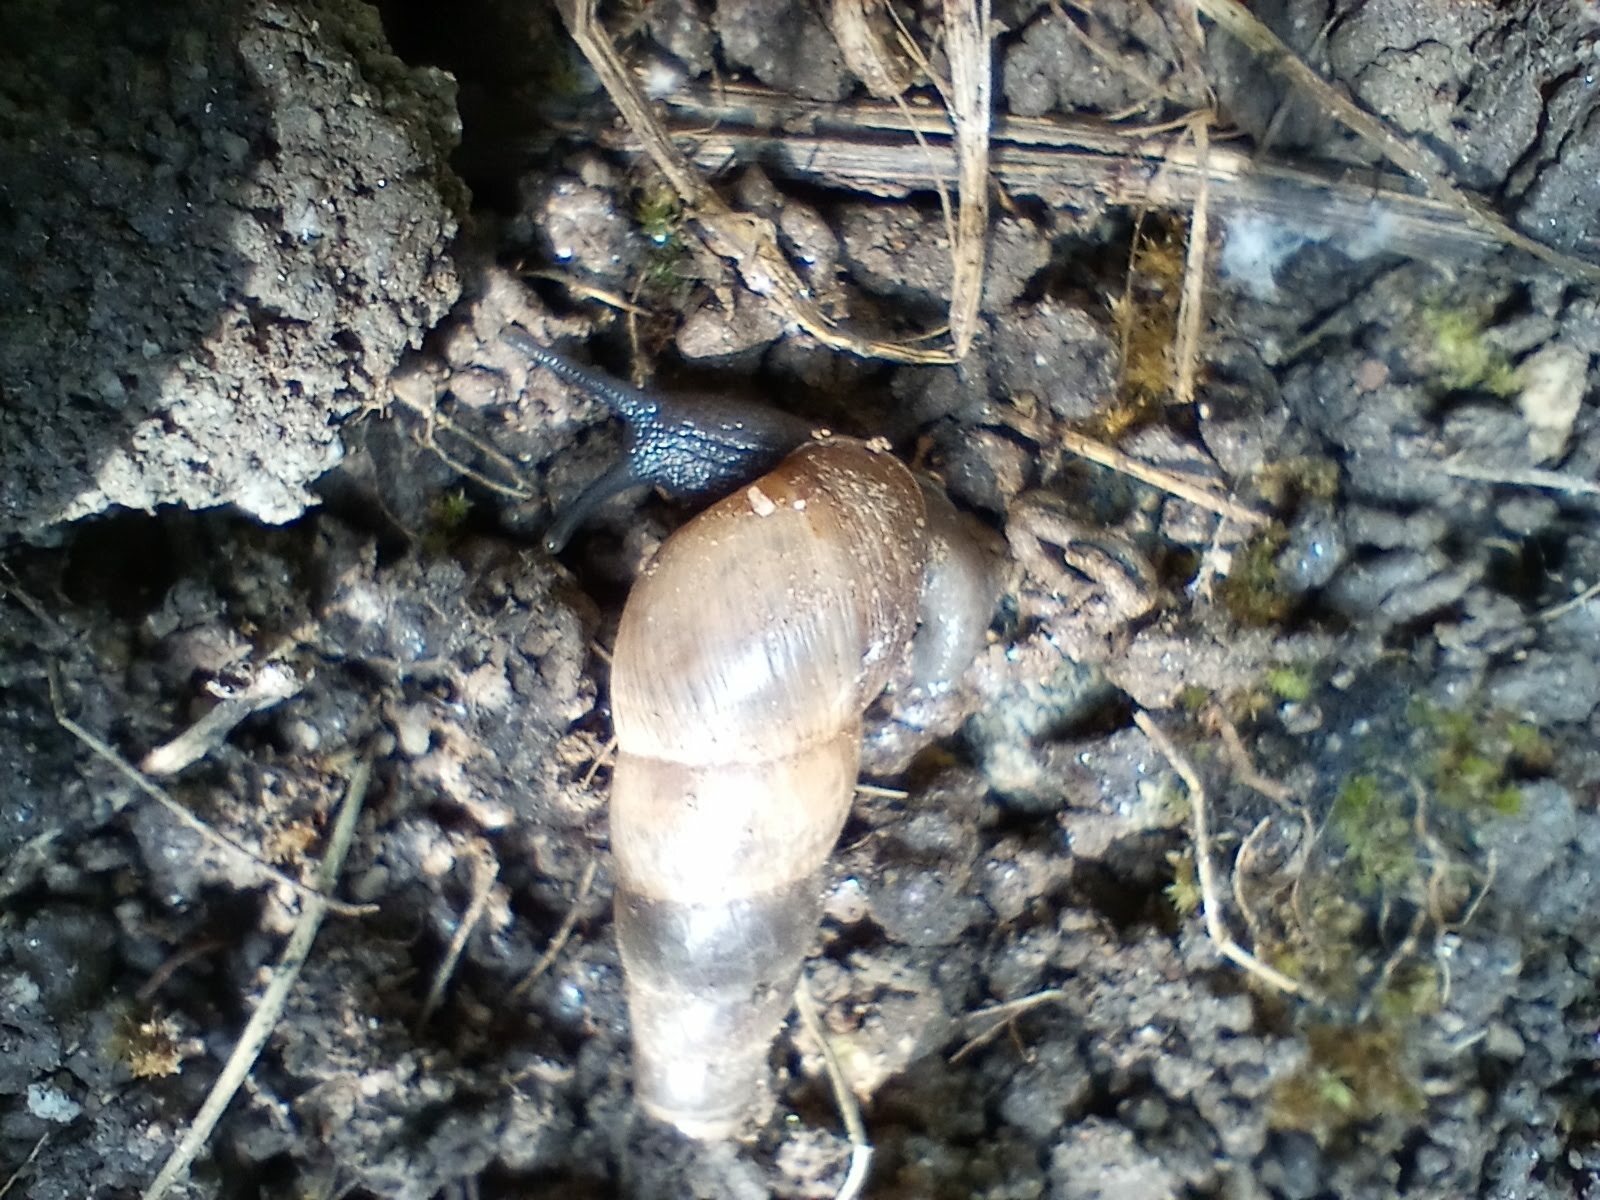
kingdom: Animalia
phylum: Mollusca
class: Gastropoda
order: Stylommatophora
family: Achatinidae
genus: Rumina
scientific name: Rumina decollata
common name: Decollate snail
